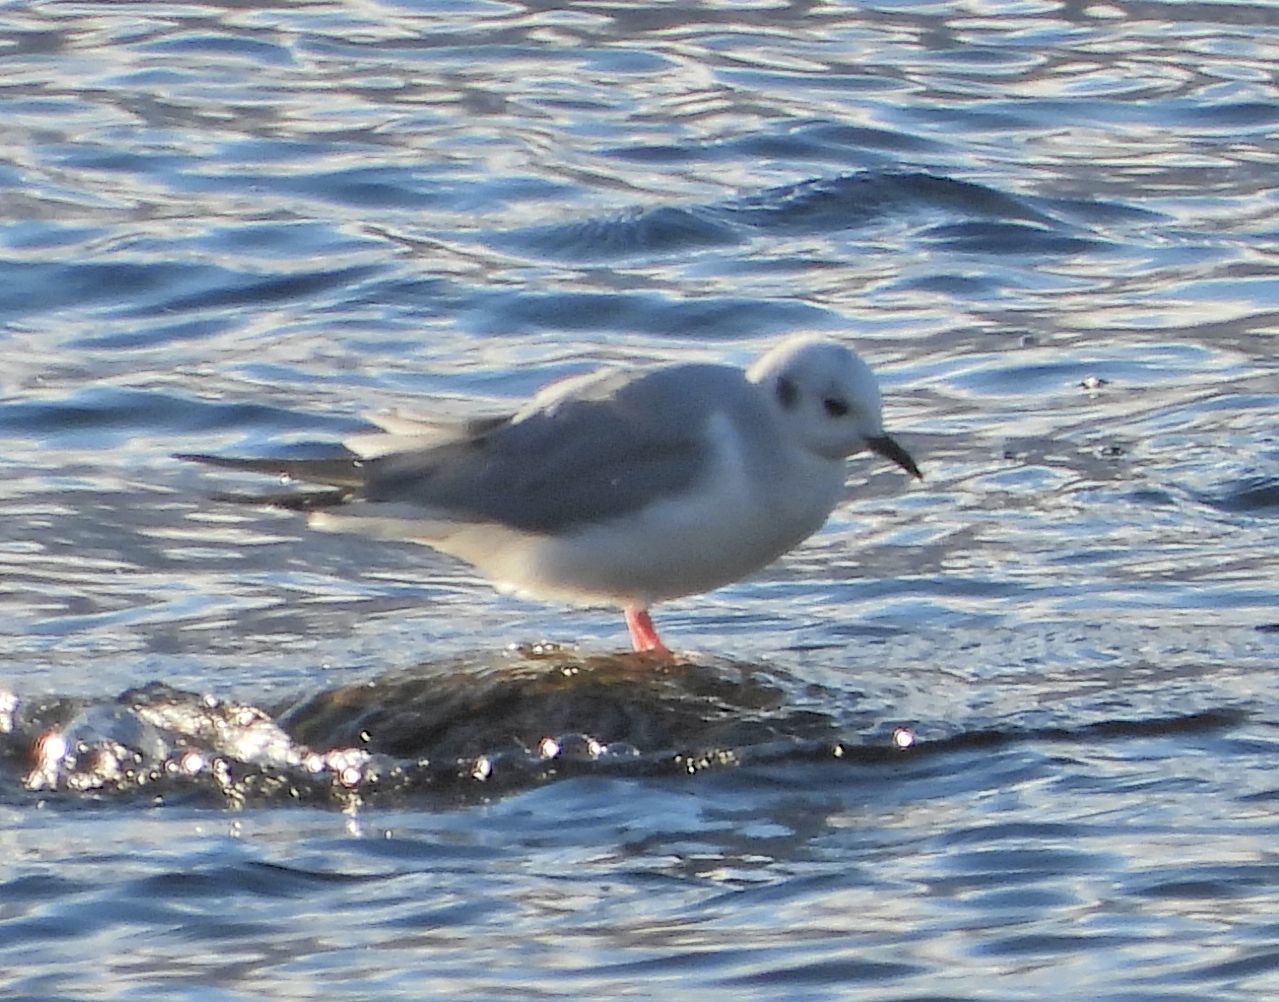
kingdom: Animalia
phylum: Chordata
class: Aves
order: Charadriiformes
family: Laridae
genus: Chroicocephalus
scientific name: Chroicocephalus philadelphia
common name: Bonaparte's gull
